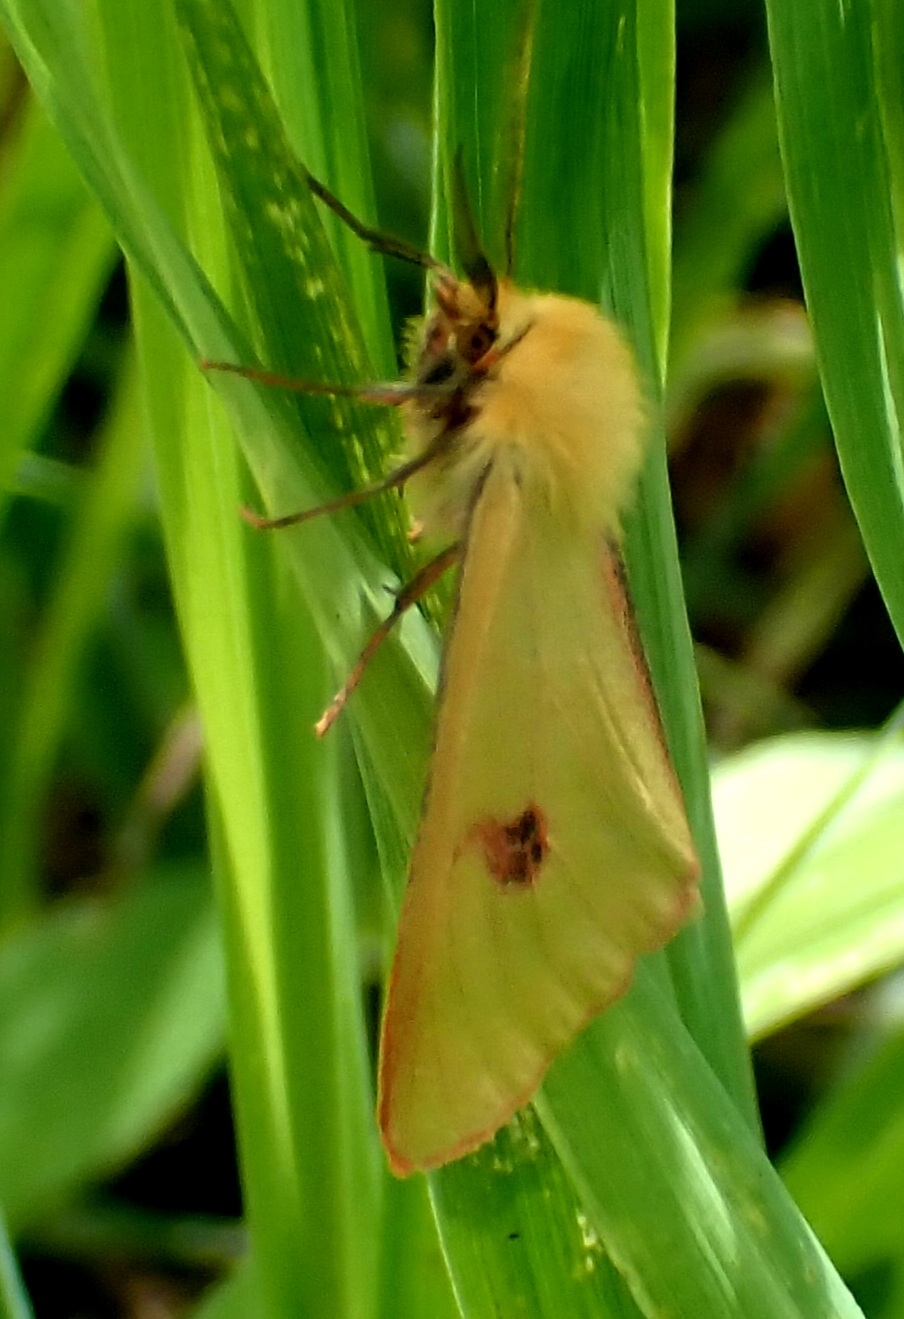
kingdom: Animalia
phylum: Arthropoda
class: Insecta
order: Lepidoptera
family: Erebidae
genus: Diacrisia
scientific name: Diacrisia sannio
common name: Clouded buff
